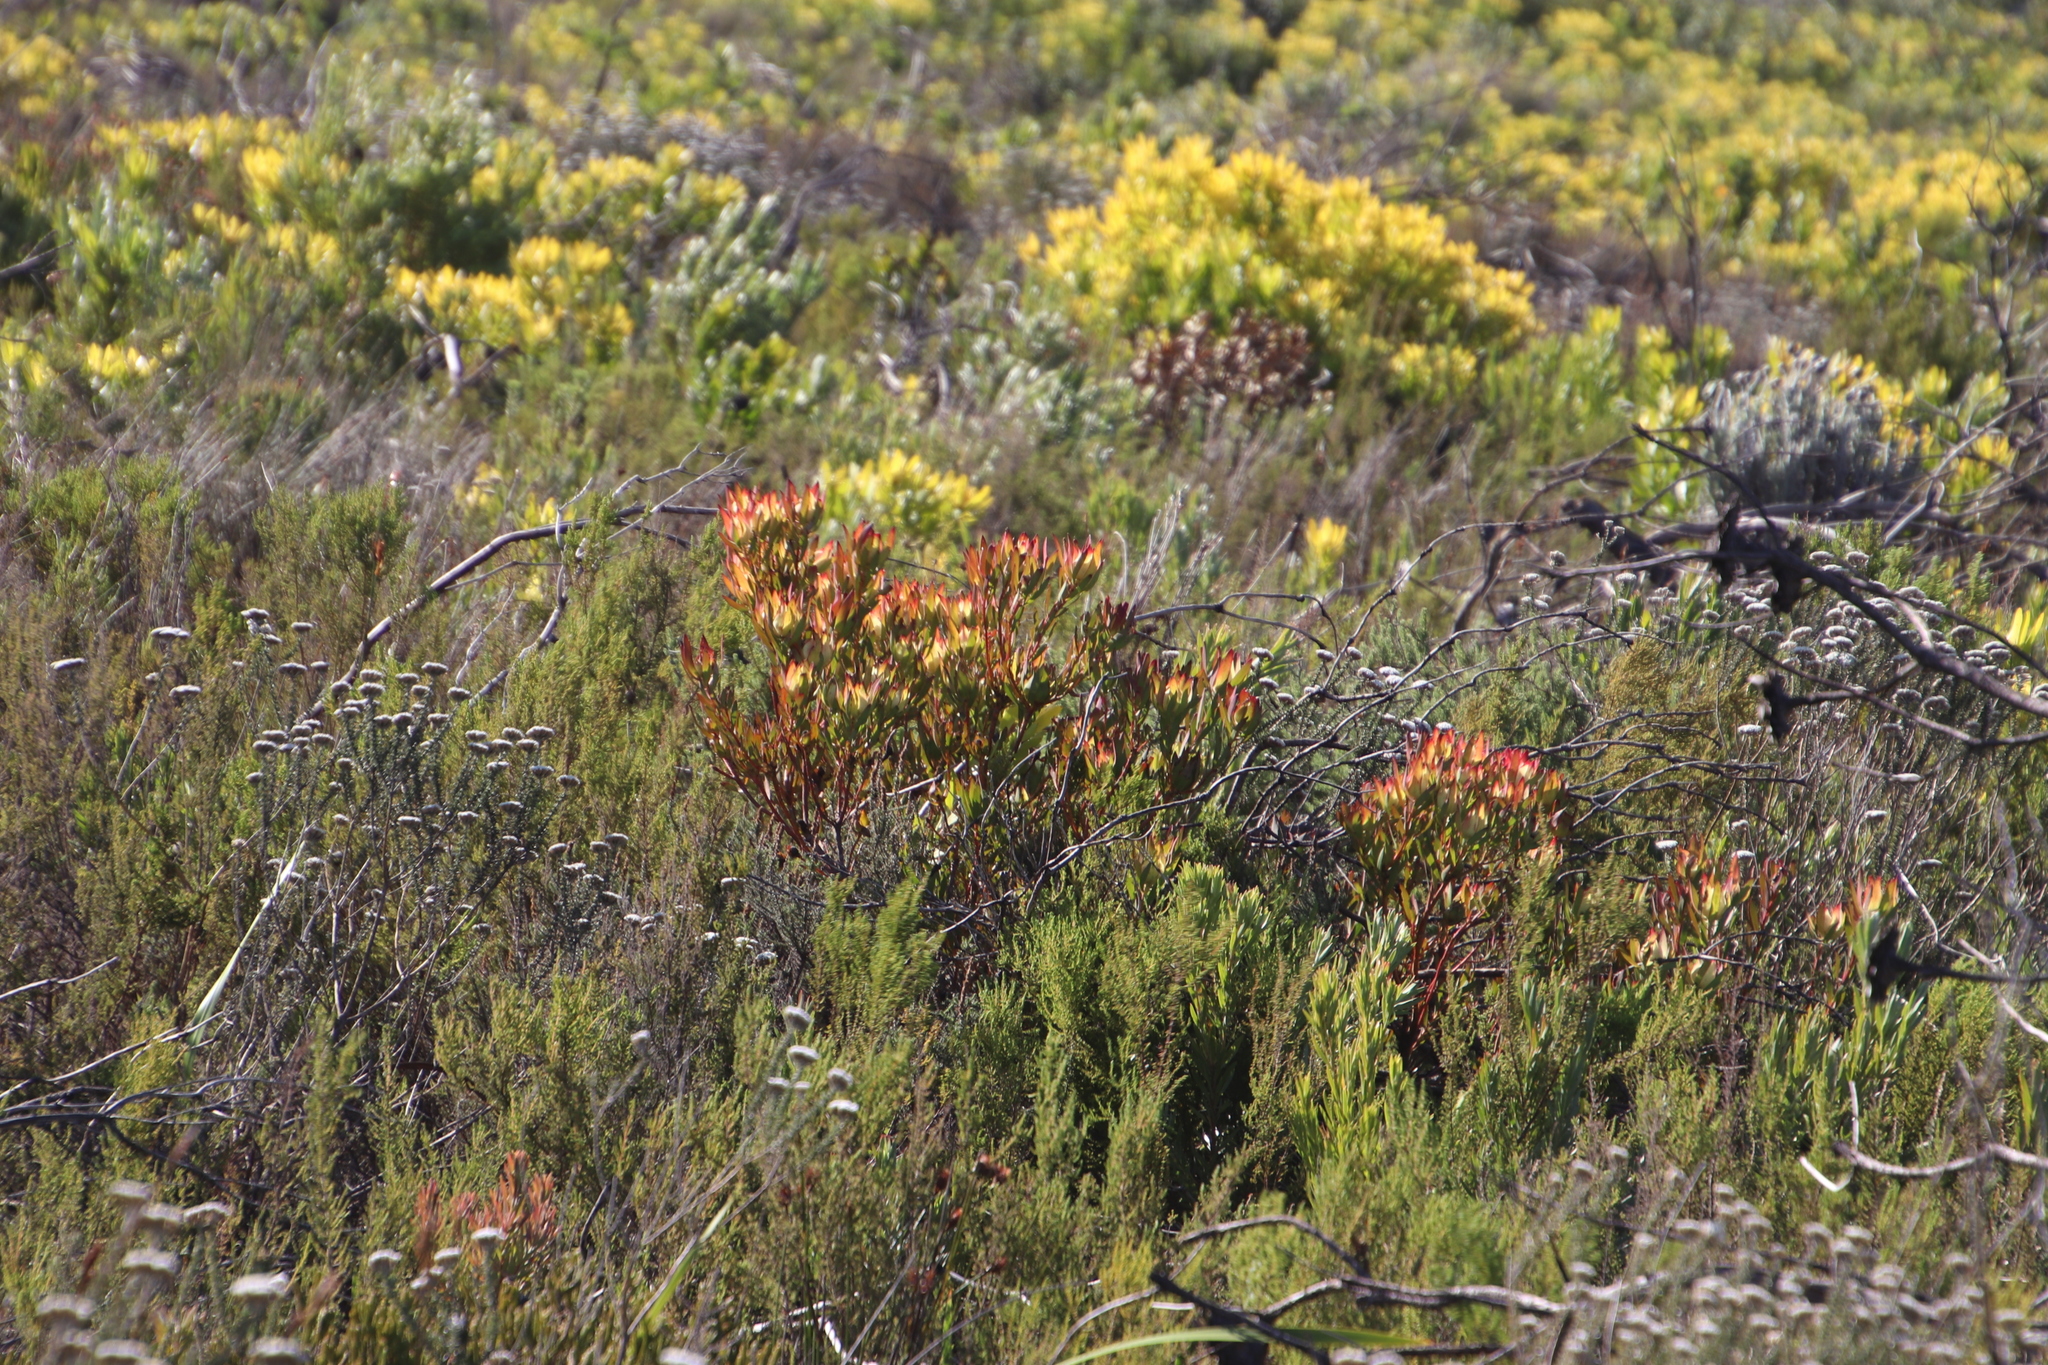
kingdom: Plantae
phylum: Tracheophyta
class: Magnoliopsida
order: Proteales
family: Proteaceae
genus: Leucadendron
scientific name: Leucadendron salignum
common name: Common sunshine conebush
